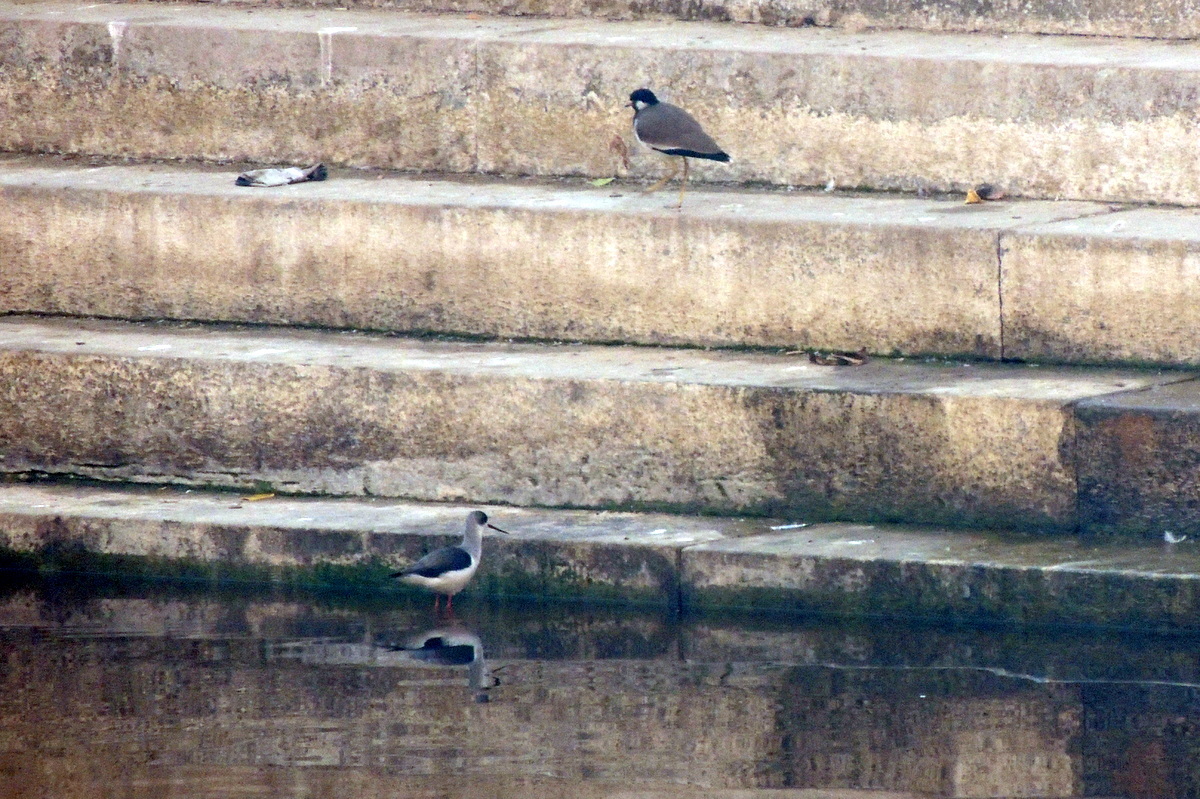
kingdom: Animalia
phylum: Chordata
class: Aves
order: Charadriiformes
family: Recurvirostridae
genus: Himantopus
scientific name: Himantopus himantopus
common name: Black-winged stilt
